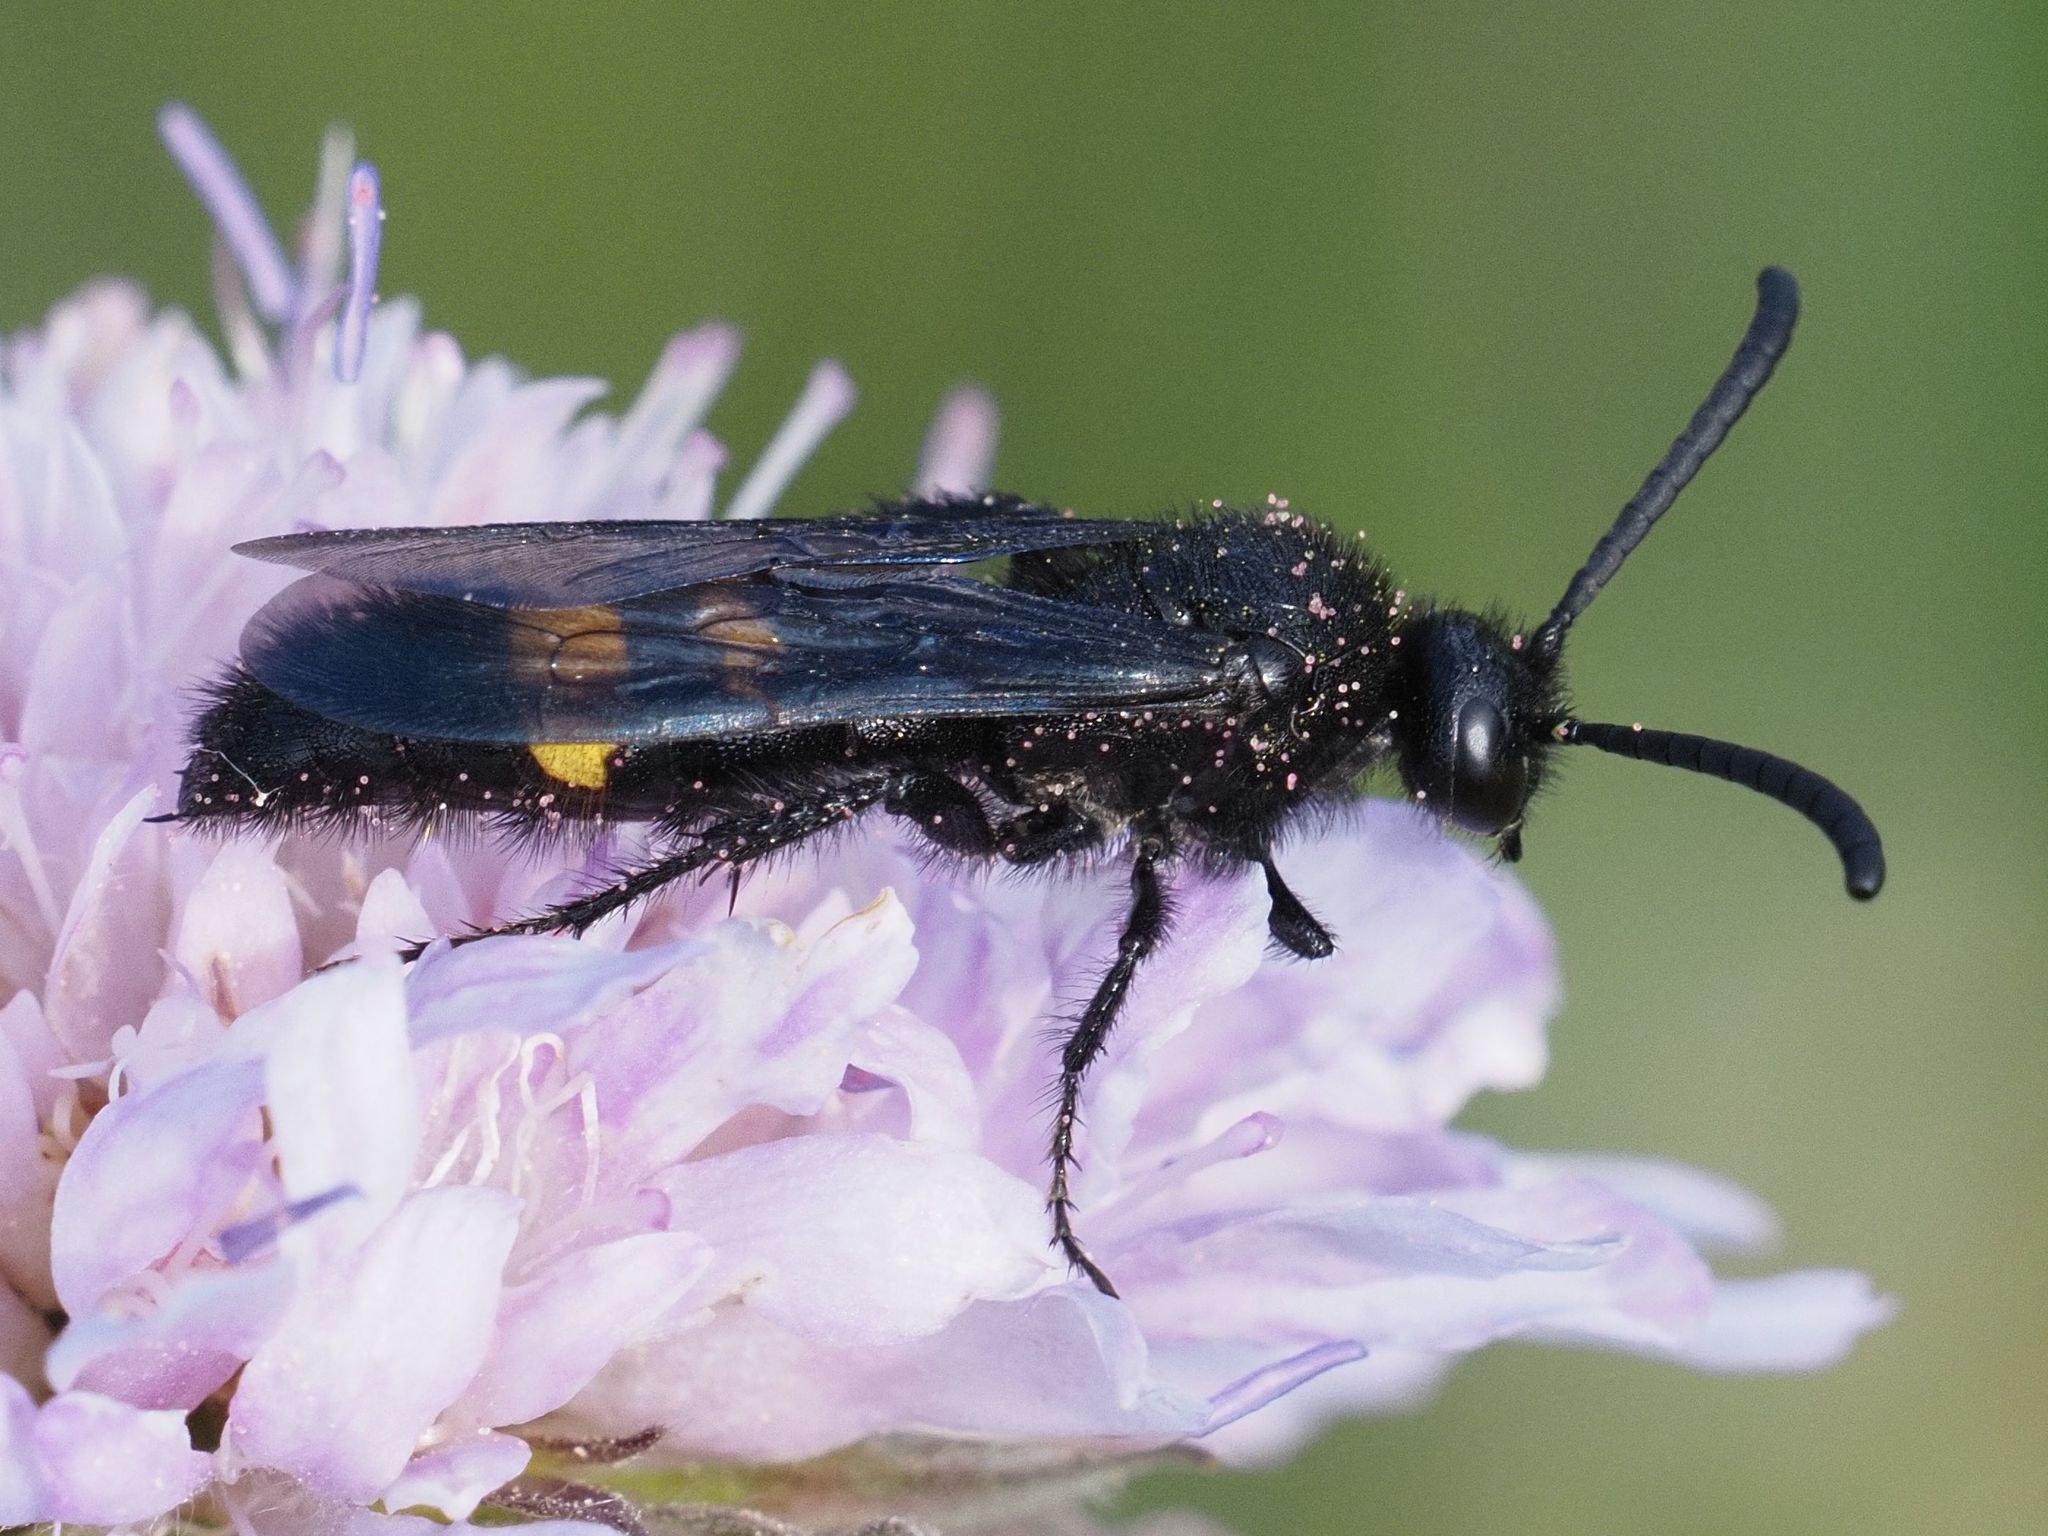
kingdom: Animalia
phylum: Arthropoda
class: Insecta
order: Hymenoptera
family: Scoliidae
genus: Scolia
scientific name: Scolia hirta
